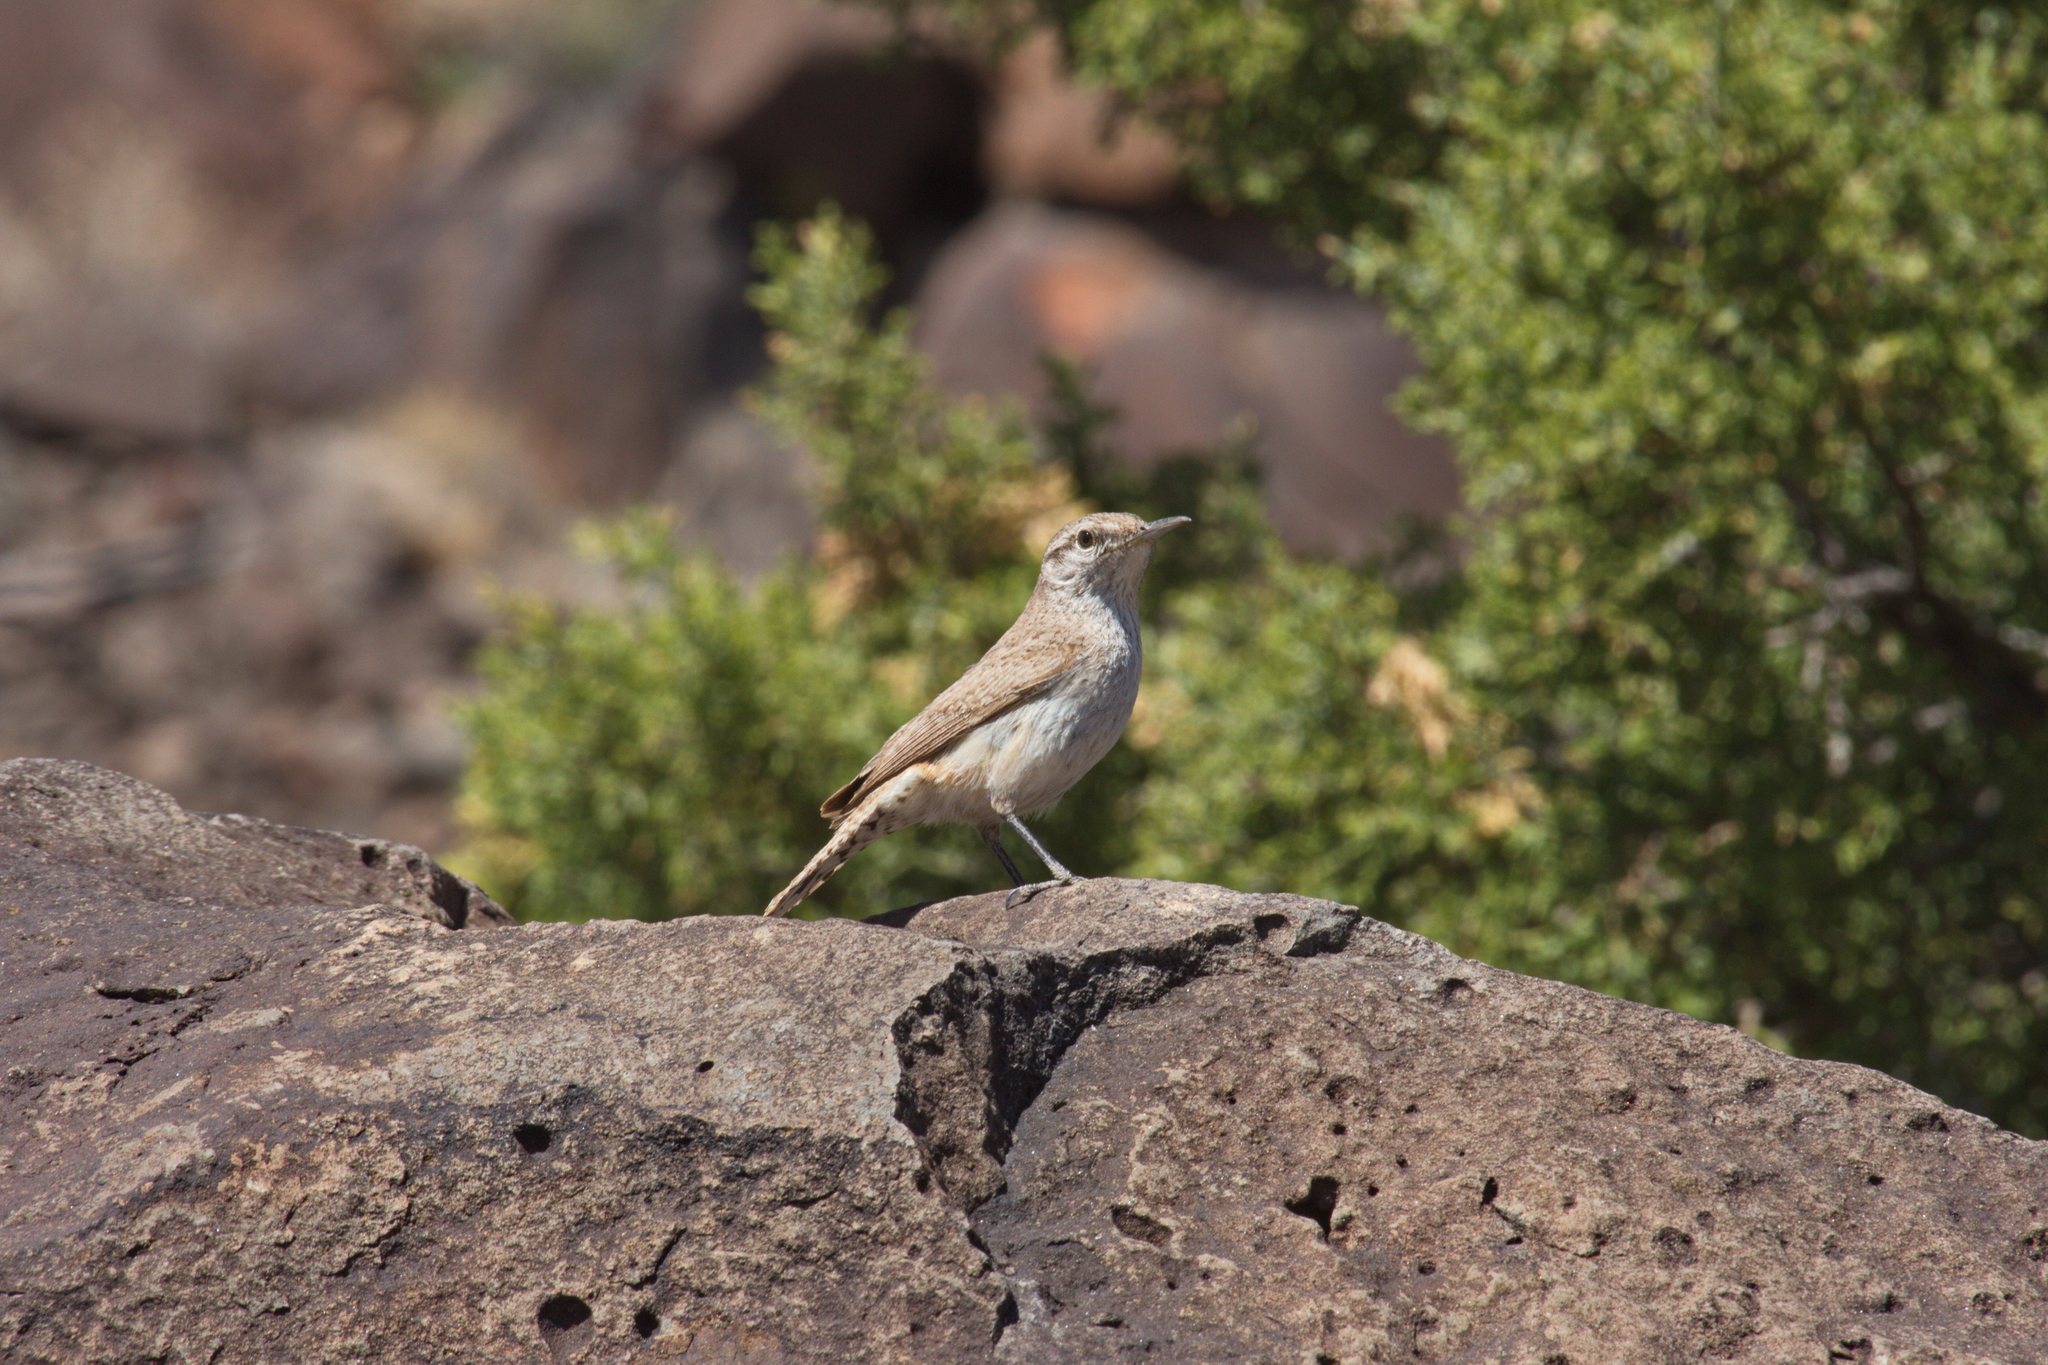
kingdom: Animalia
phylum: Chordata
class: Aves
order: Passeriformes
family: Troglodytidae
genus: Salpinctes
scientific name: Salpinctes obsoletus
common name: Rock wren
